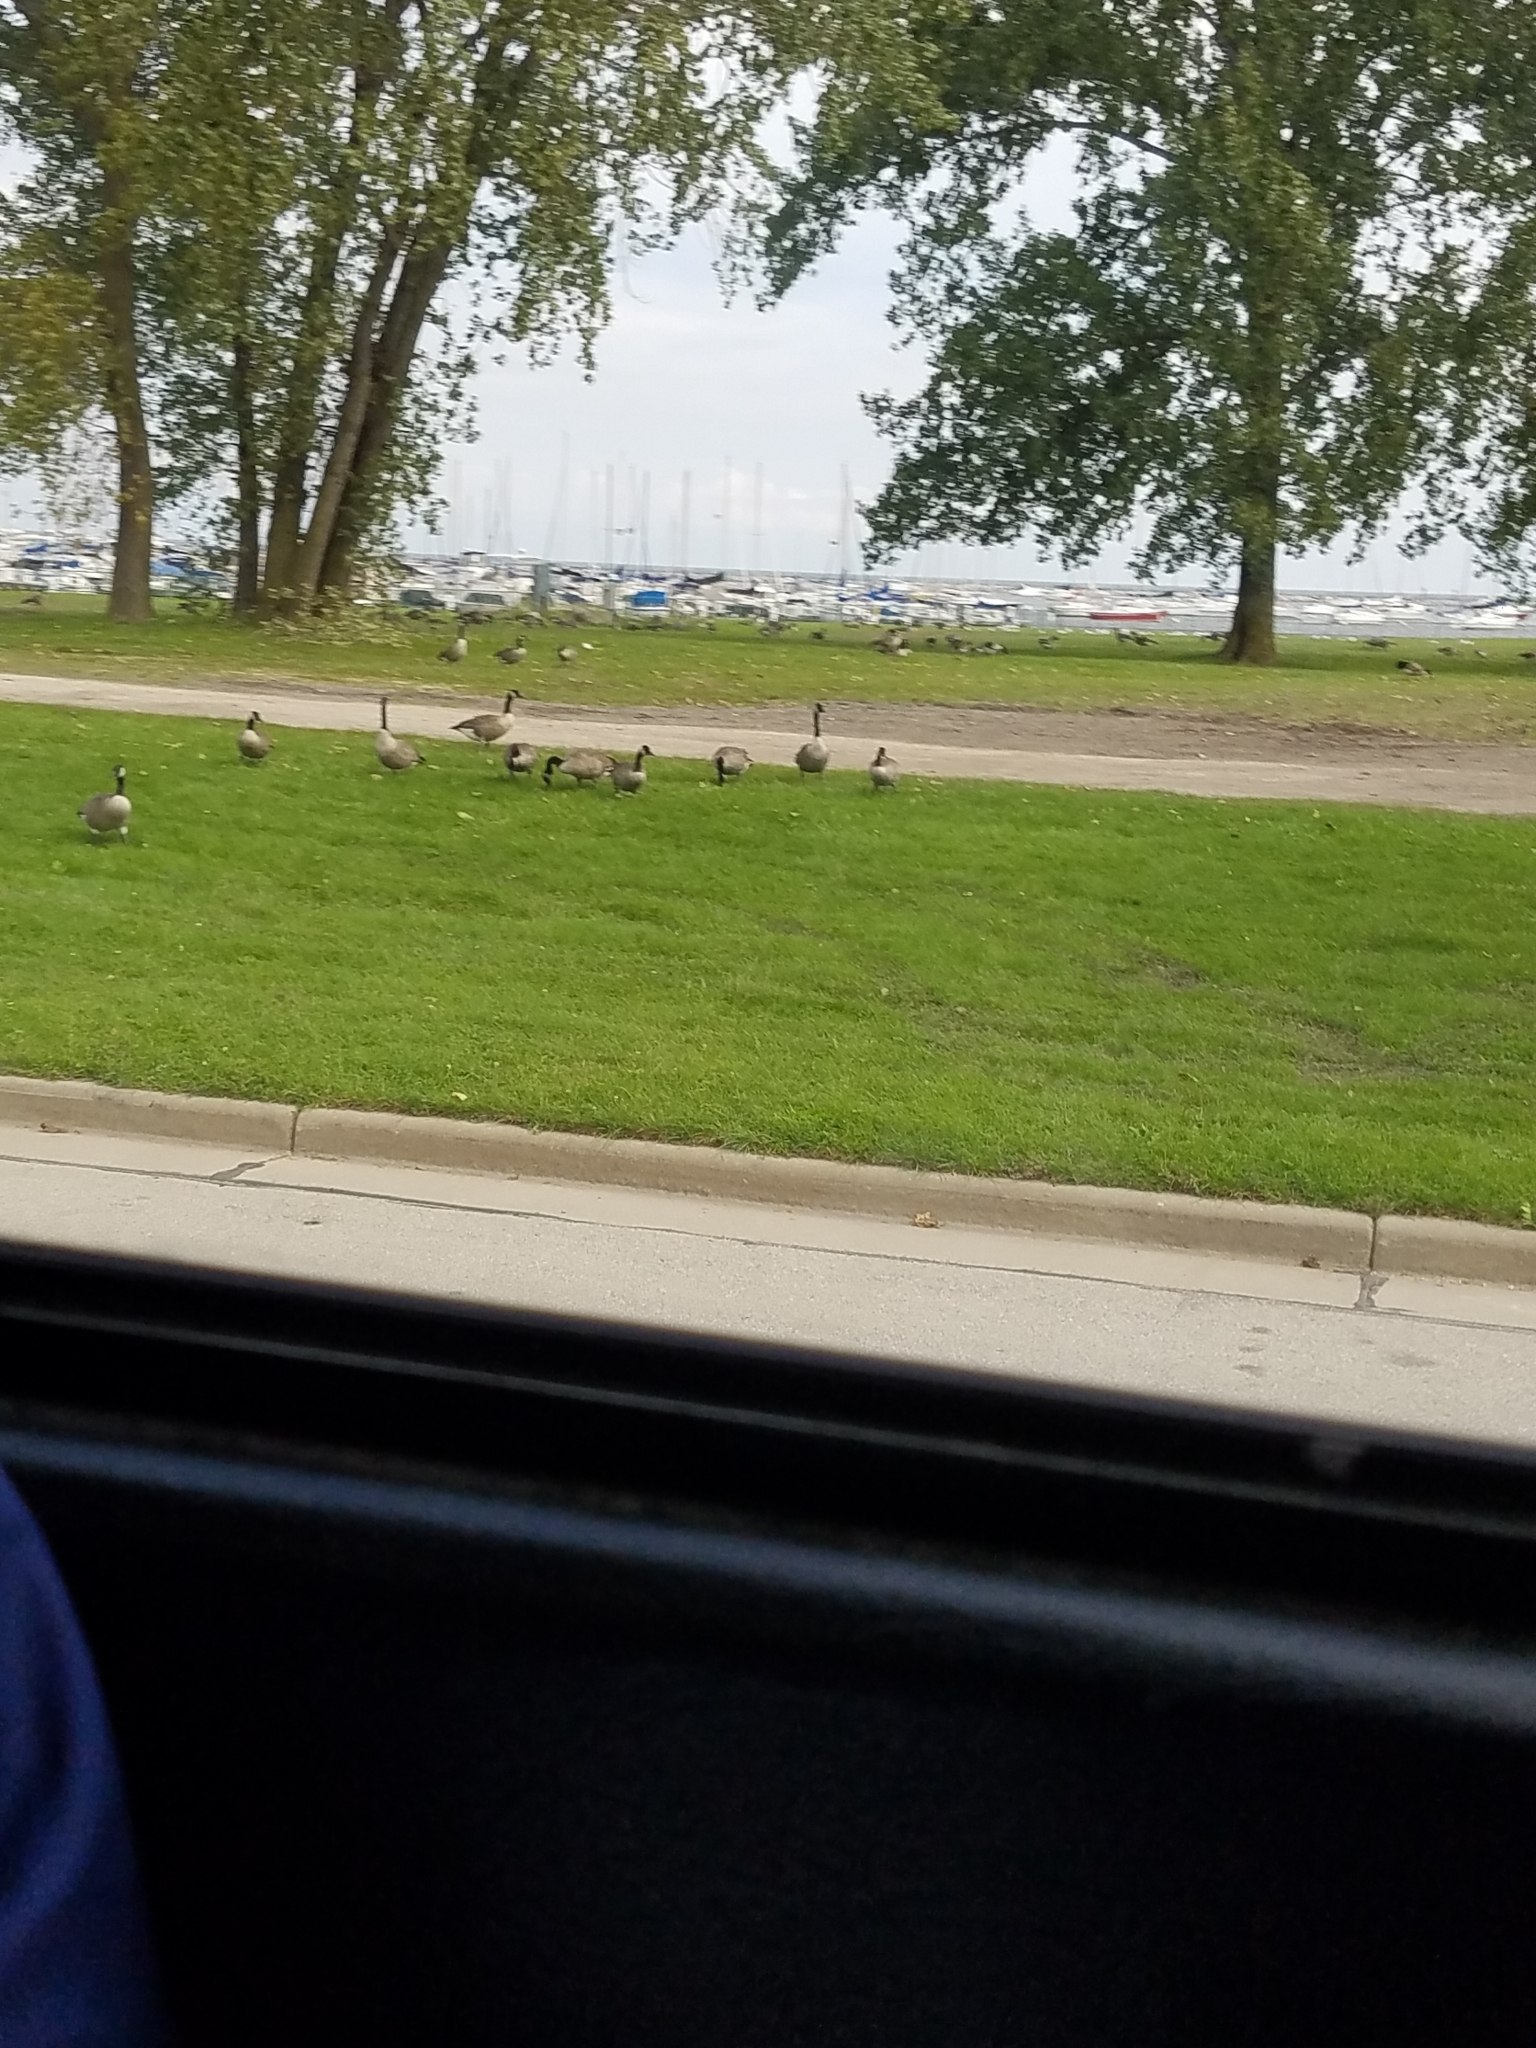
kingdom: Animalia
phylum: Chordata
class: Aves
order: Anseriformes
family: Anatidae
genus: Branta
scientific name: Branta canadensis
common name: Canada goose
